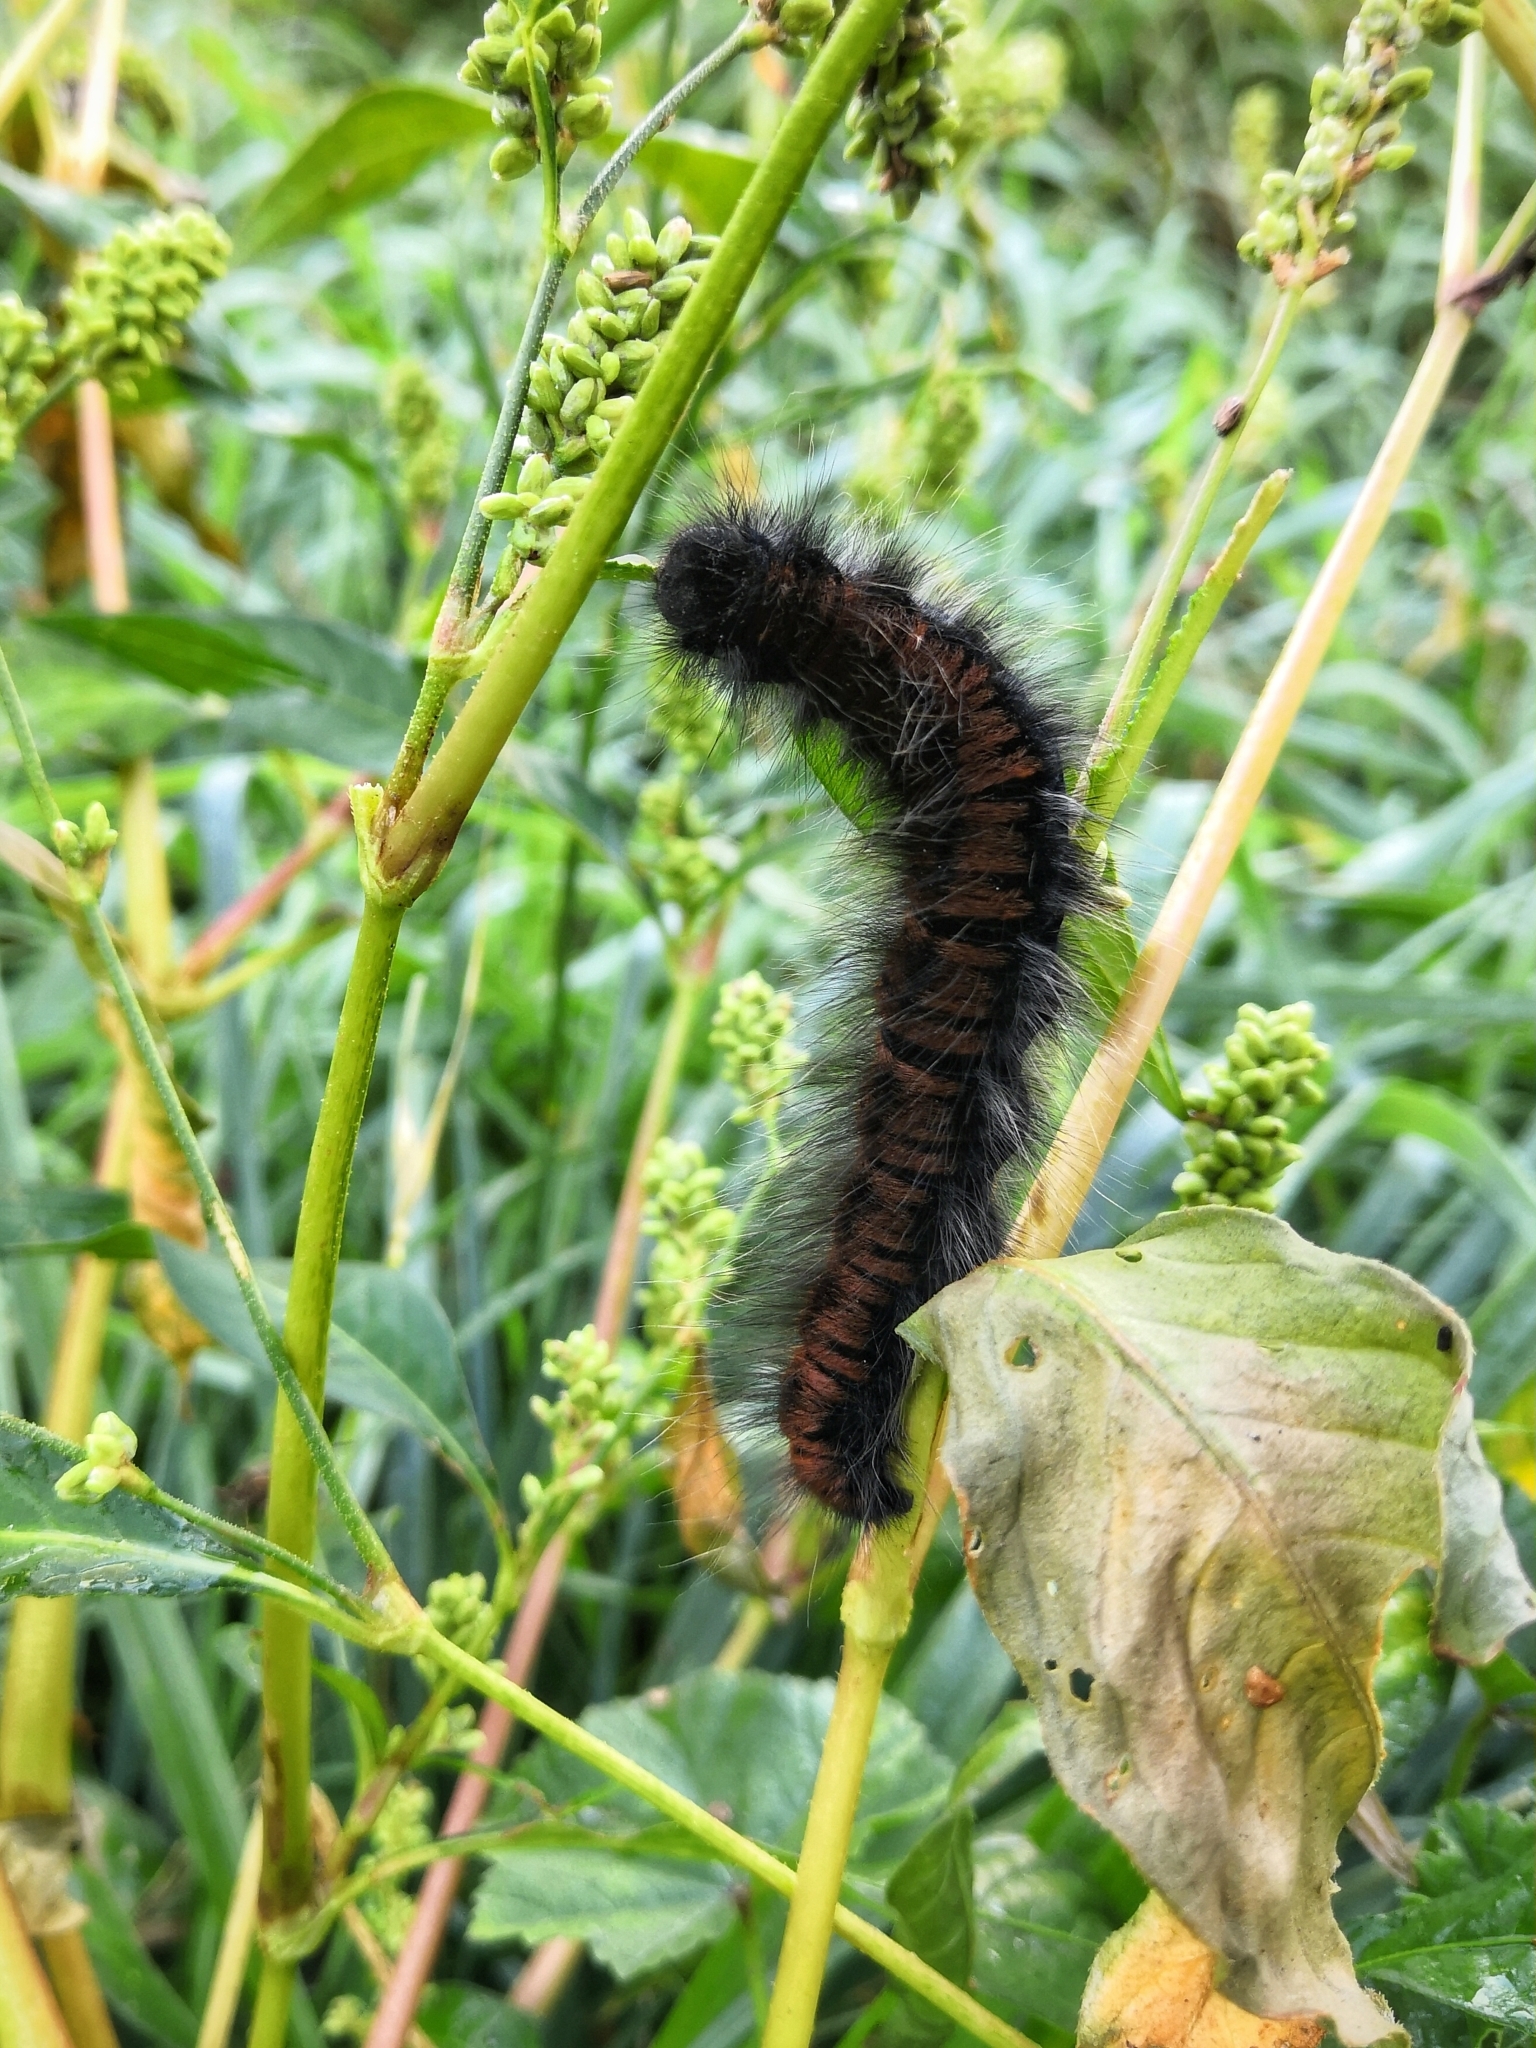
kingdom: Animalia
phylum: Arthropoda
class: Insecta
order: Lepidoptera
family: Lasiocampidae
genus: Macrothylacia
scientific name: Macrothylacia rubi
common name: Fox moth
